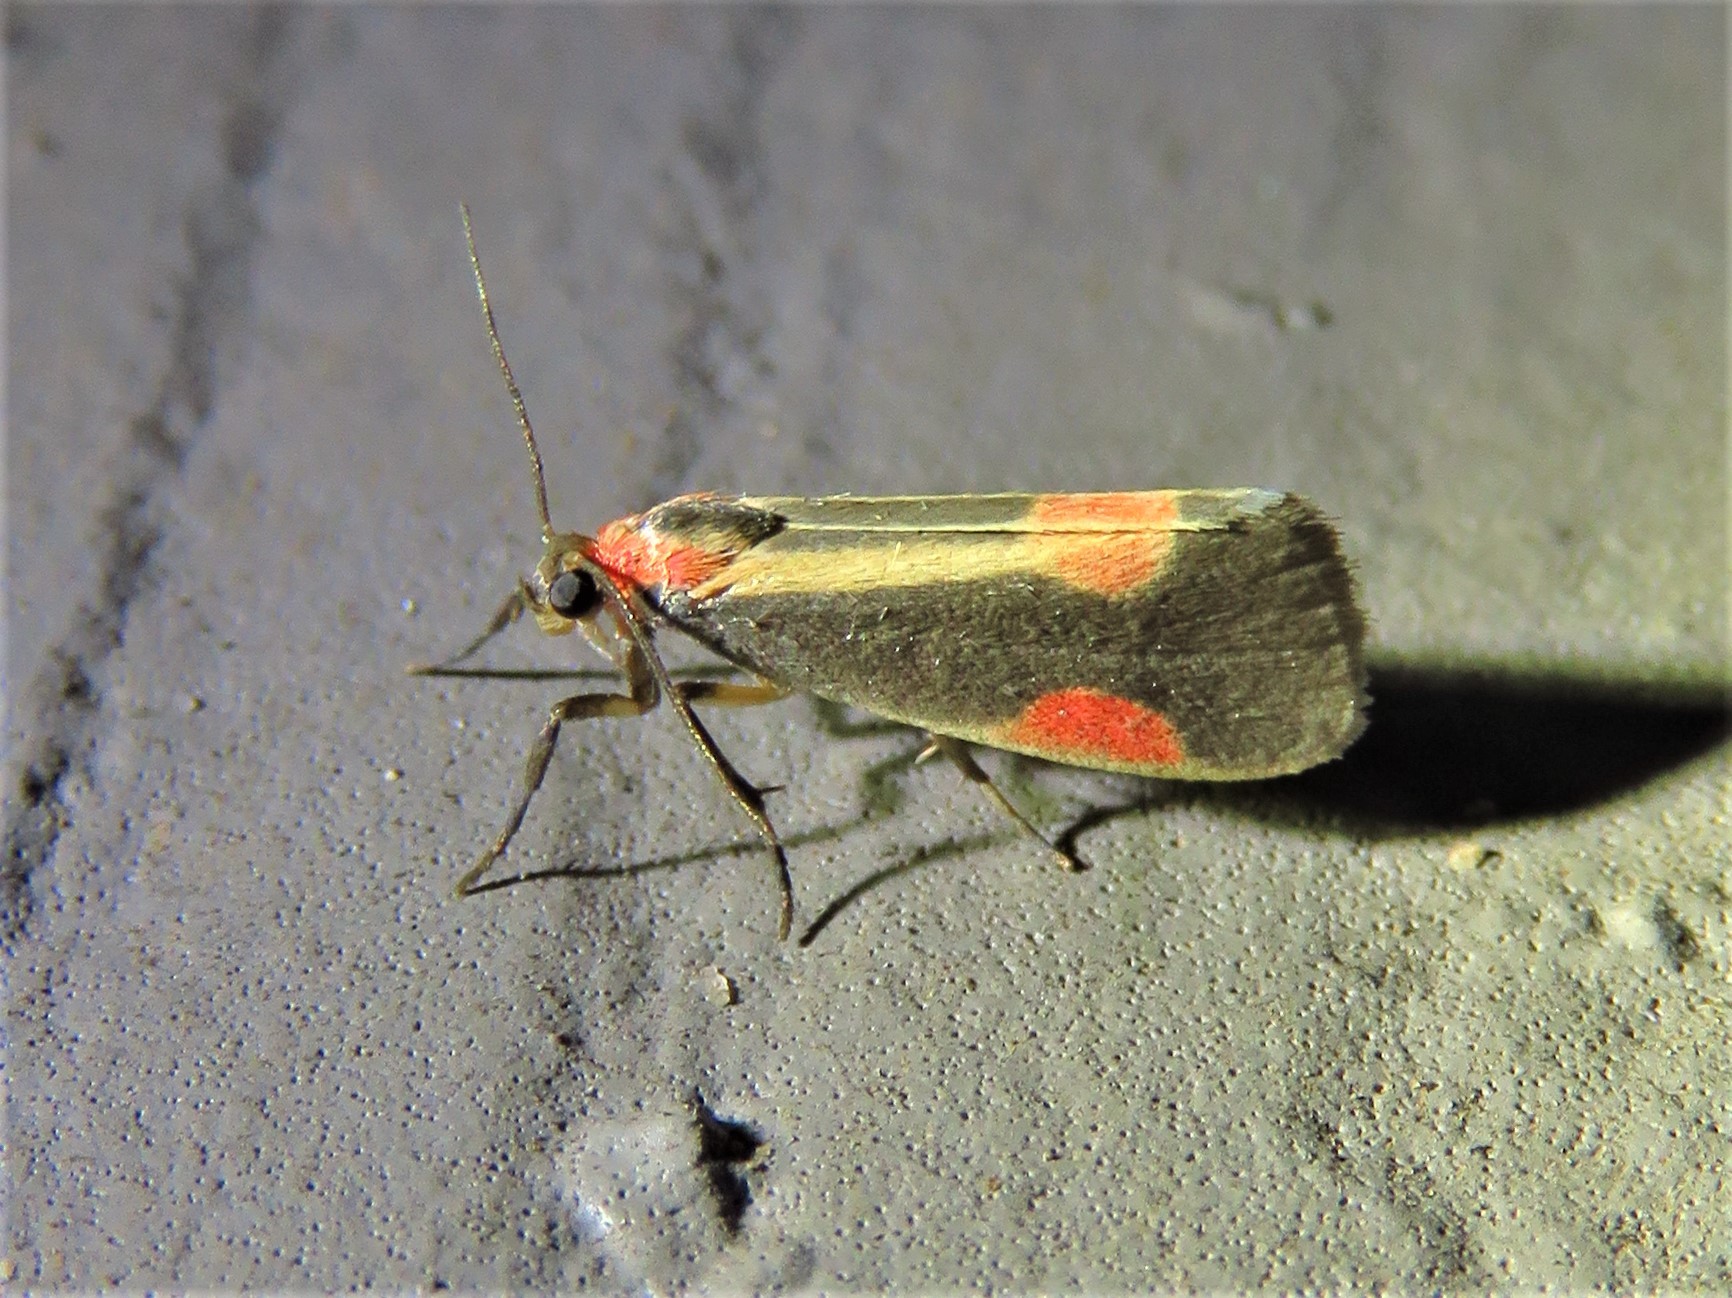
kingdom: Animalia
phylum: Arthropoda
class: Insecta
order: Lepidoptera
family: Erebidae
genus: Cisthene
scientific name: Cisthene packardii
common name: Packard's lichen moth
